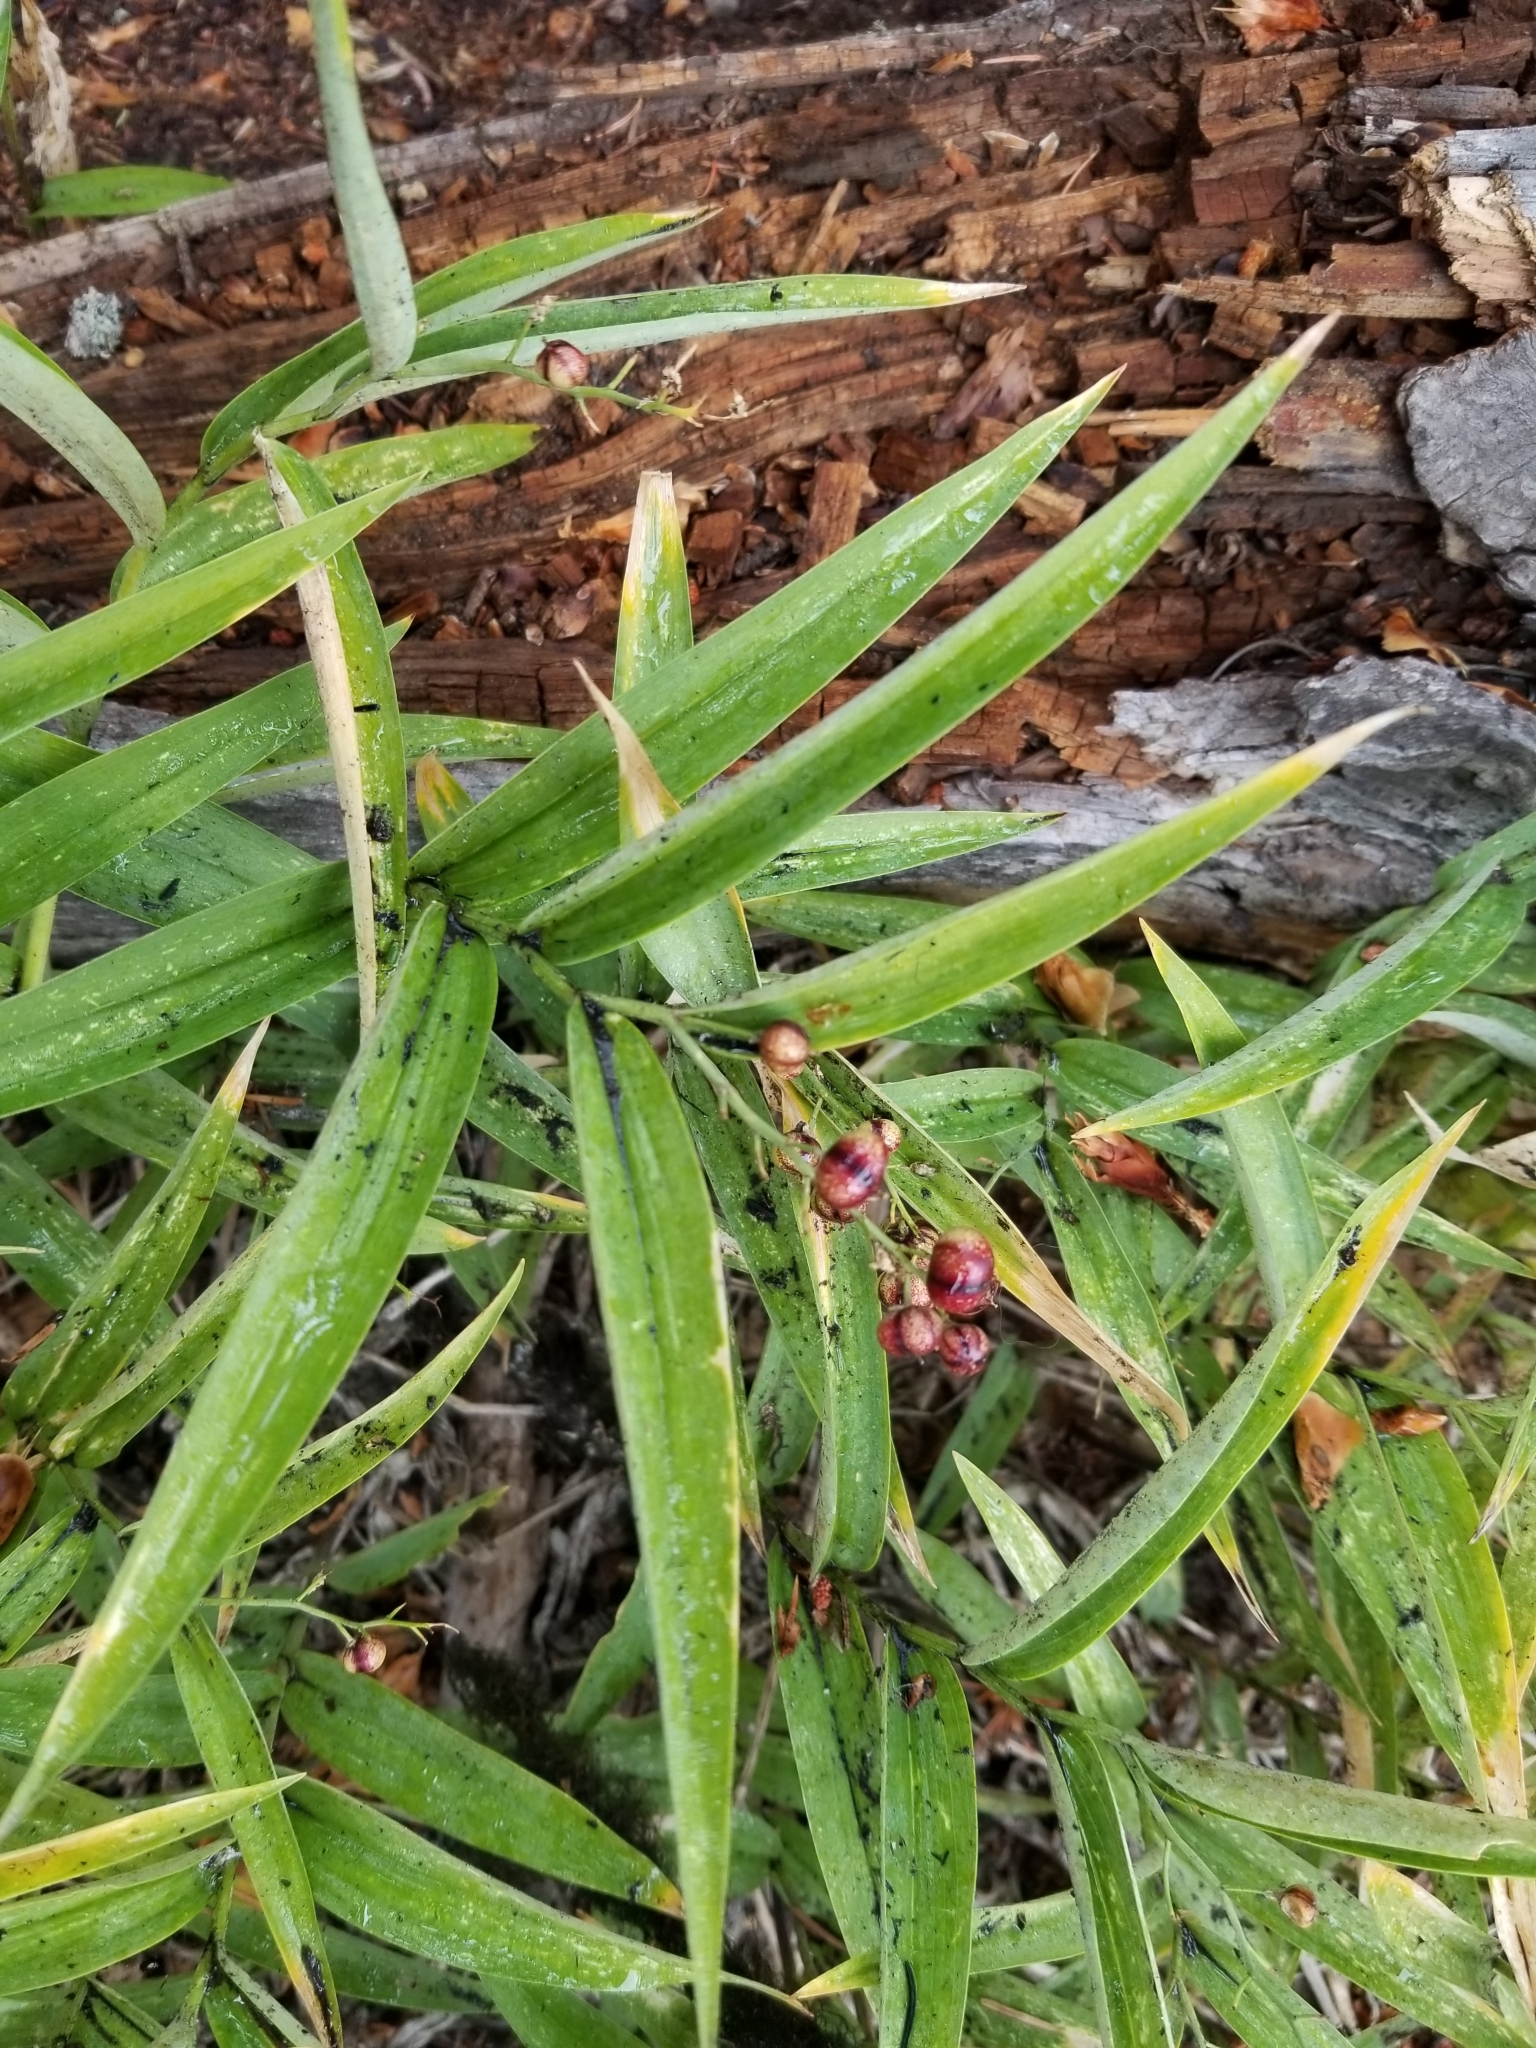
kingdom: Plantae
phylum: Tracheophyta
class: Liliopsida
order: Asparagales
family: Asparagaceae
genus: Maianthemum
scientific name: Maianthemum stellatum
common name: Little false solomon's seal
